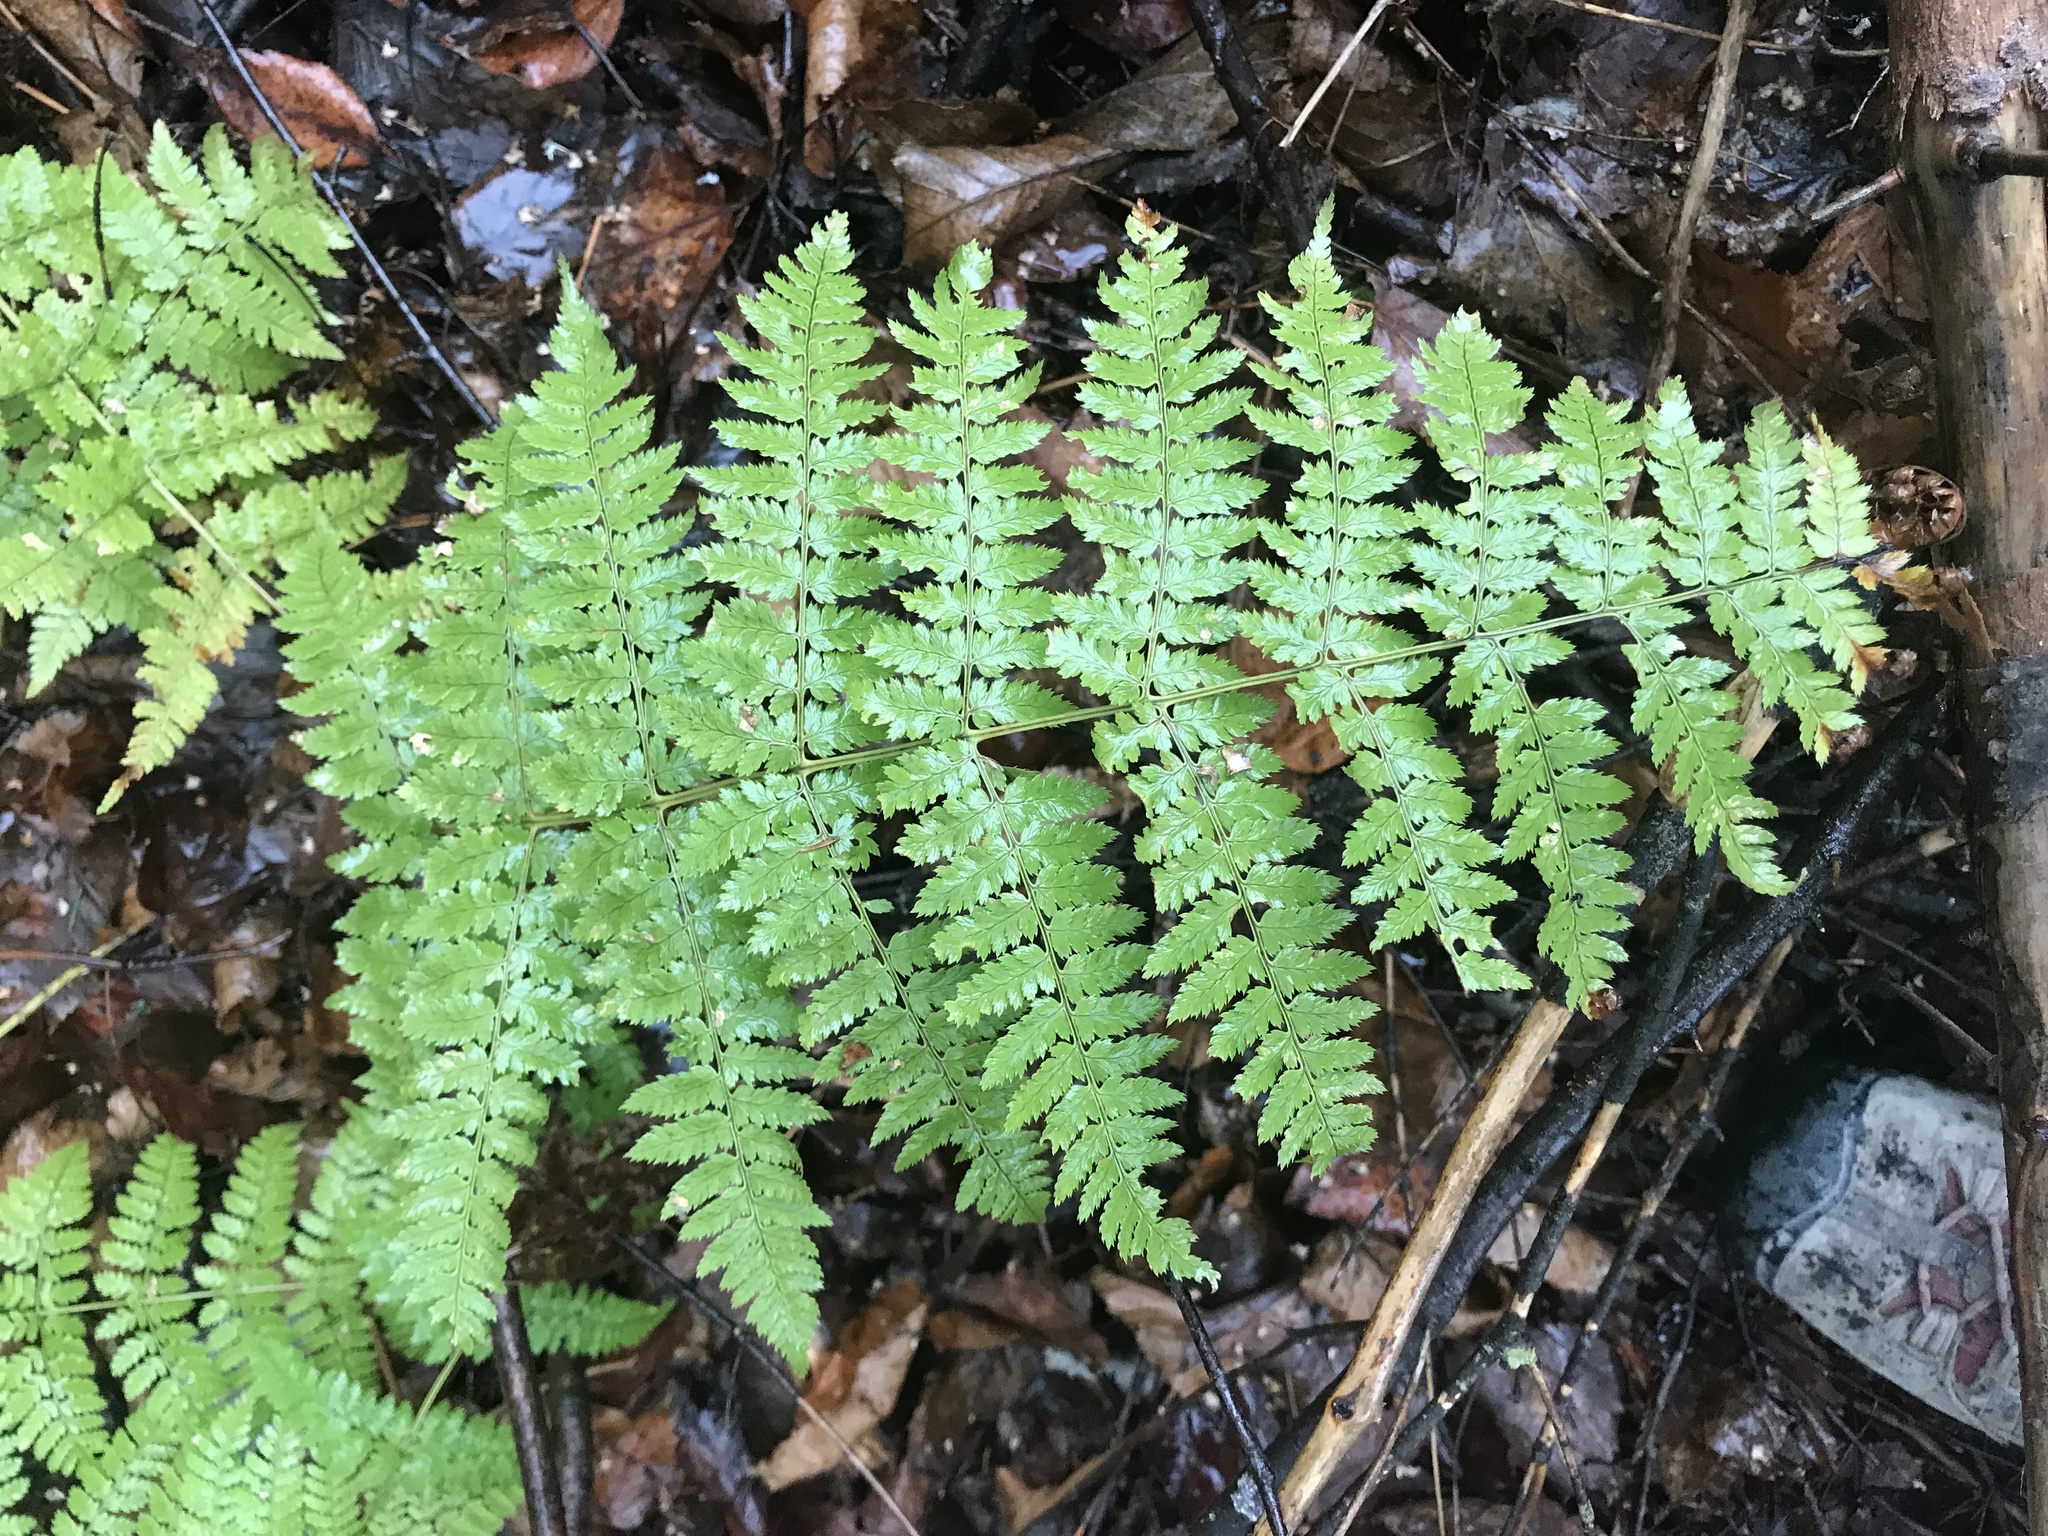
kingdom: Plantae
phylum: Tracheophyta
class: Polypodiopsida
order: Polypodiales
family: Dryopteridaceae
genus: Dryopteris
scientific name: Dryopteris intermedia
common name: Evergreen wood fern
